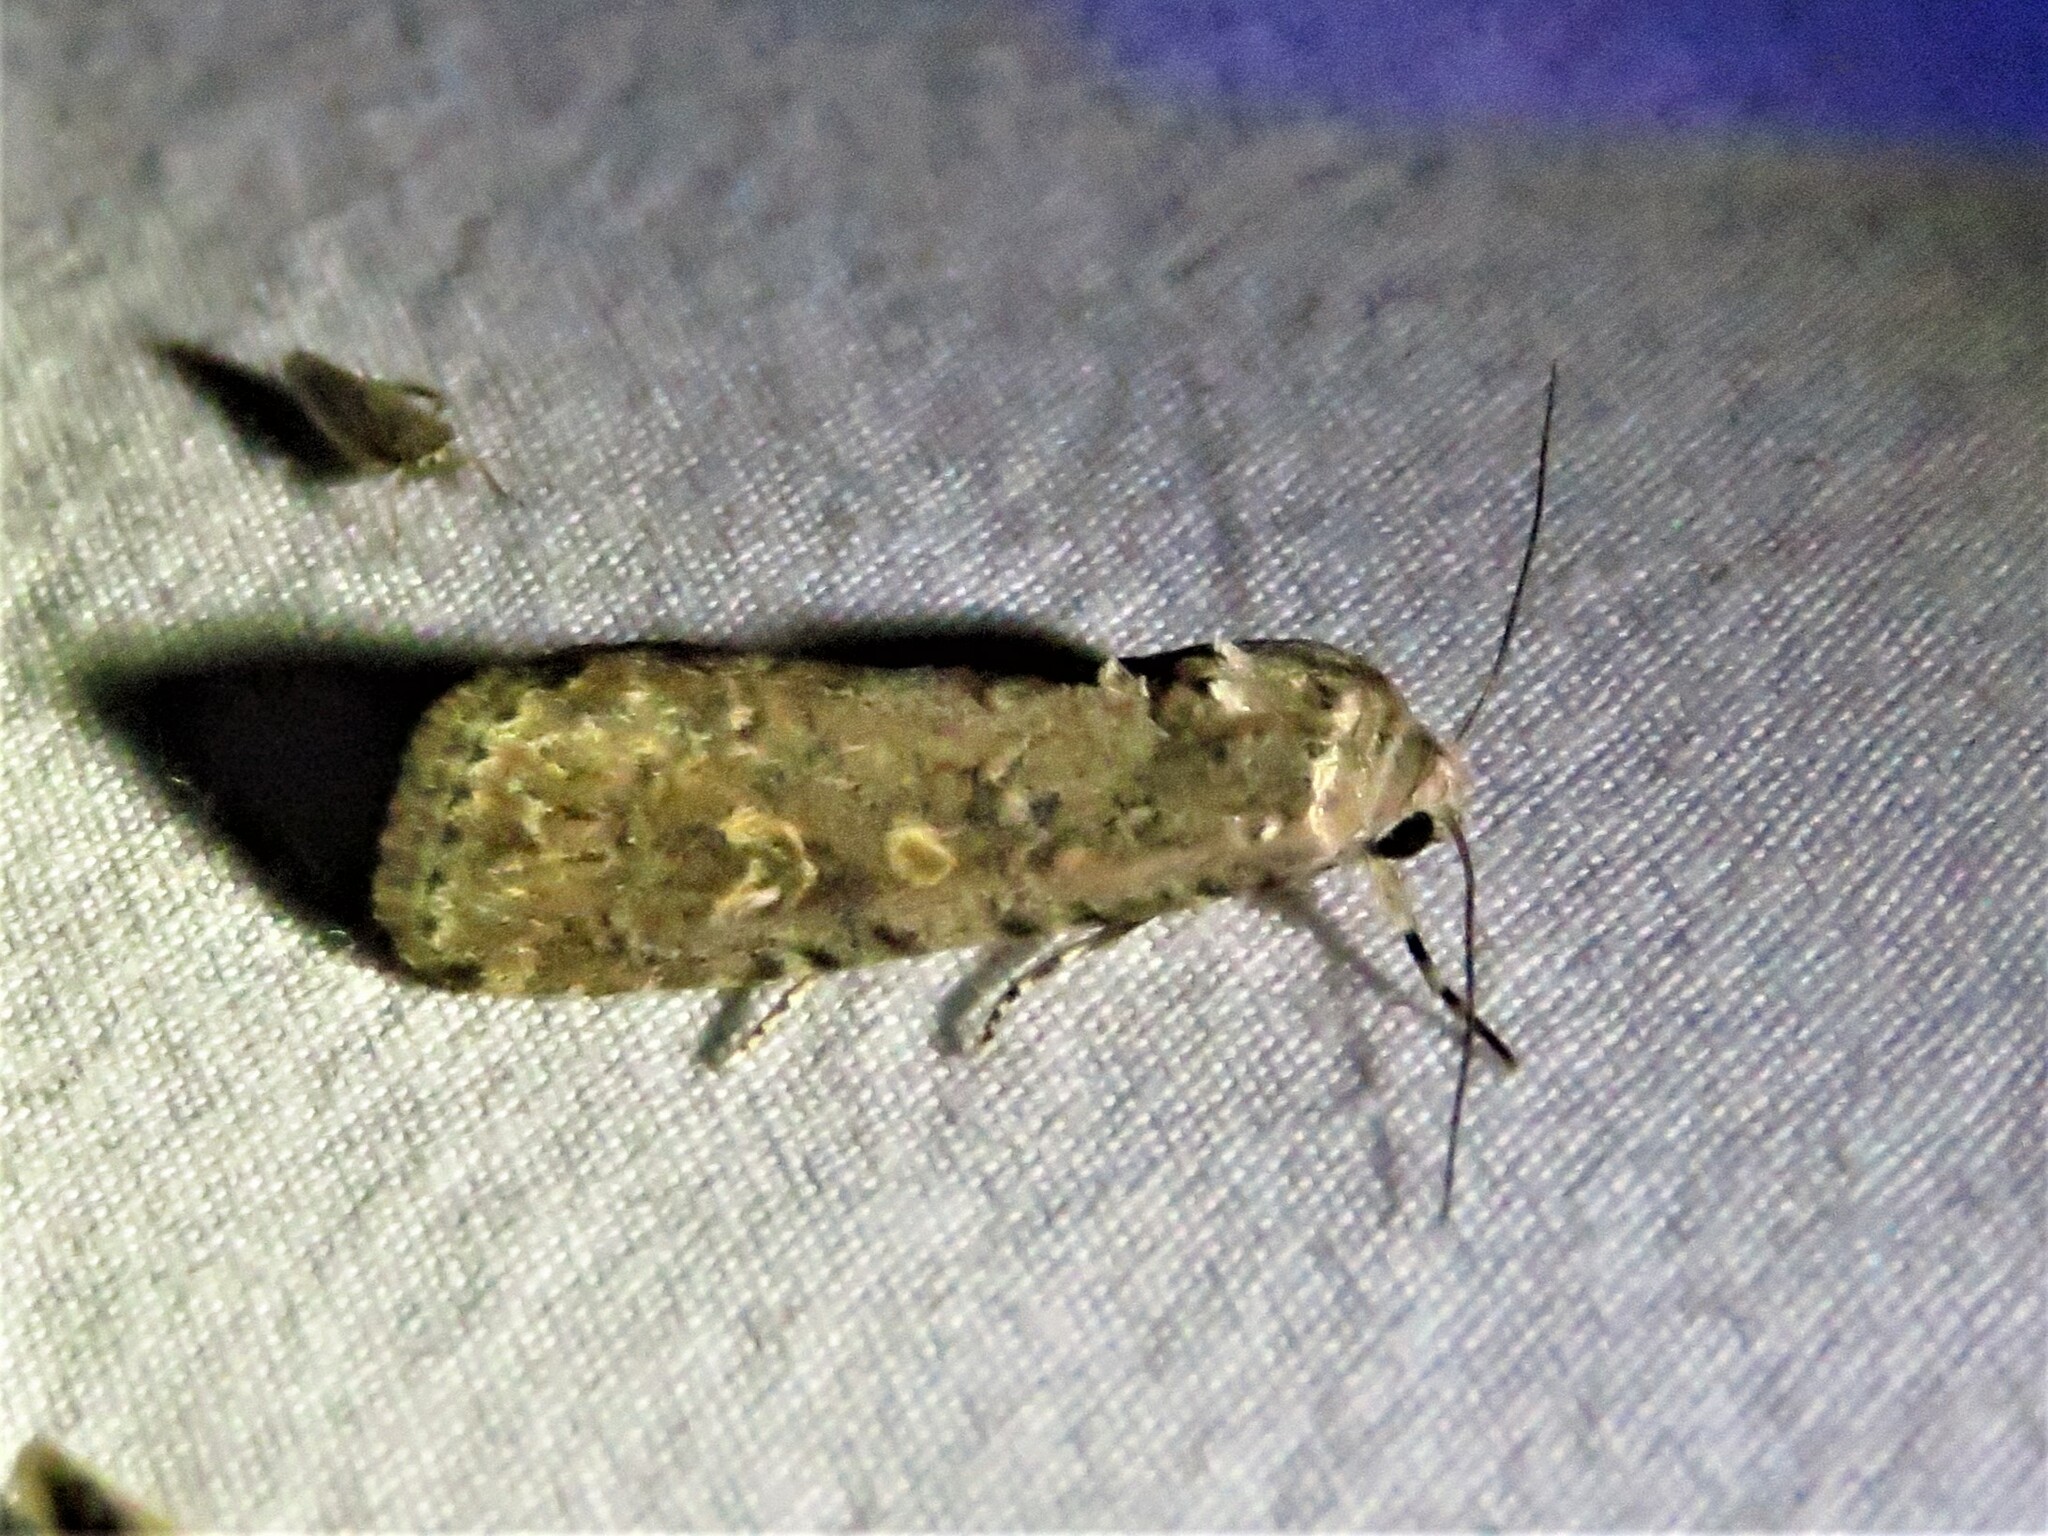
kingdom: Animalia
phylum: Arthropoda
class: Insecta
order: Lepidoptera
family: Noctuidae
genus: Spodoptera
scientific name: Spodoptera exigua
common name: Beet armyworm
